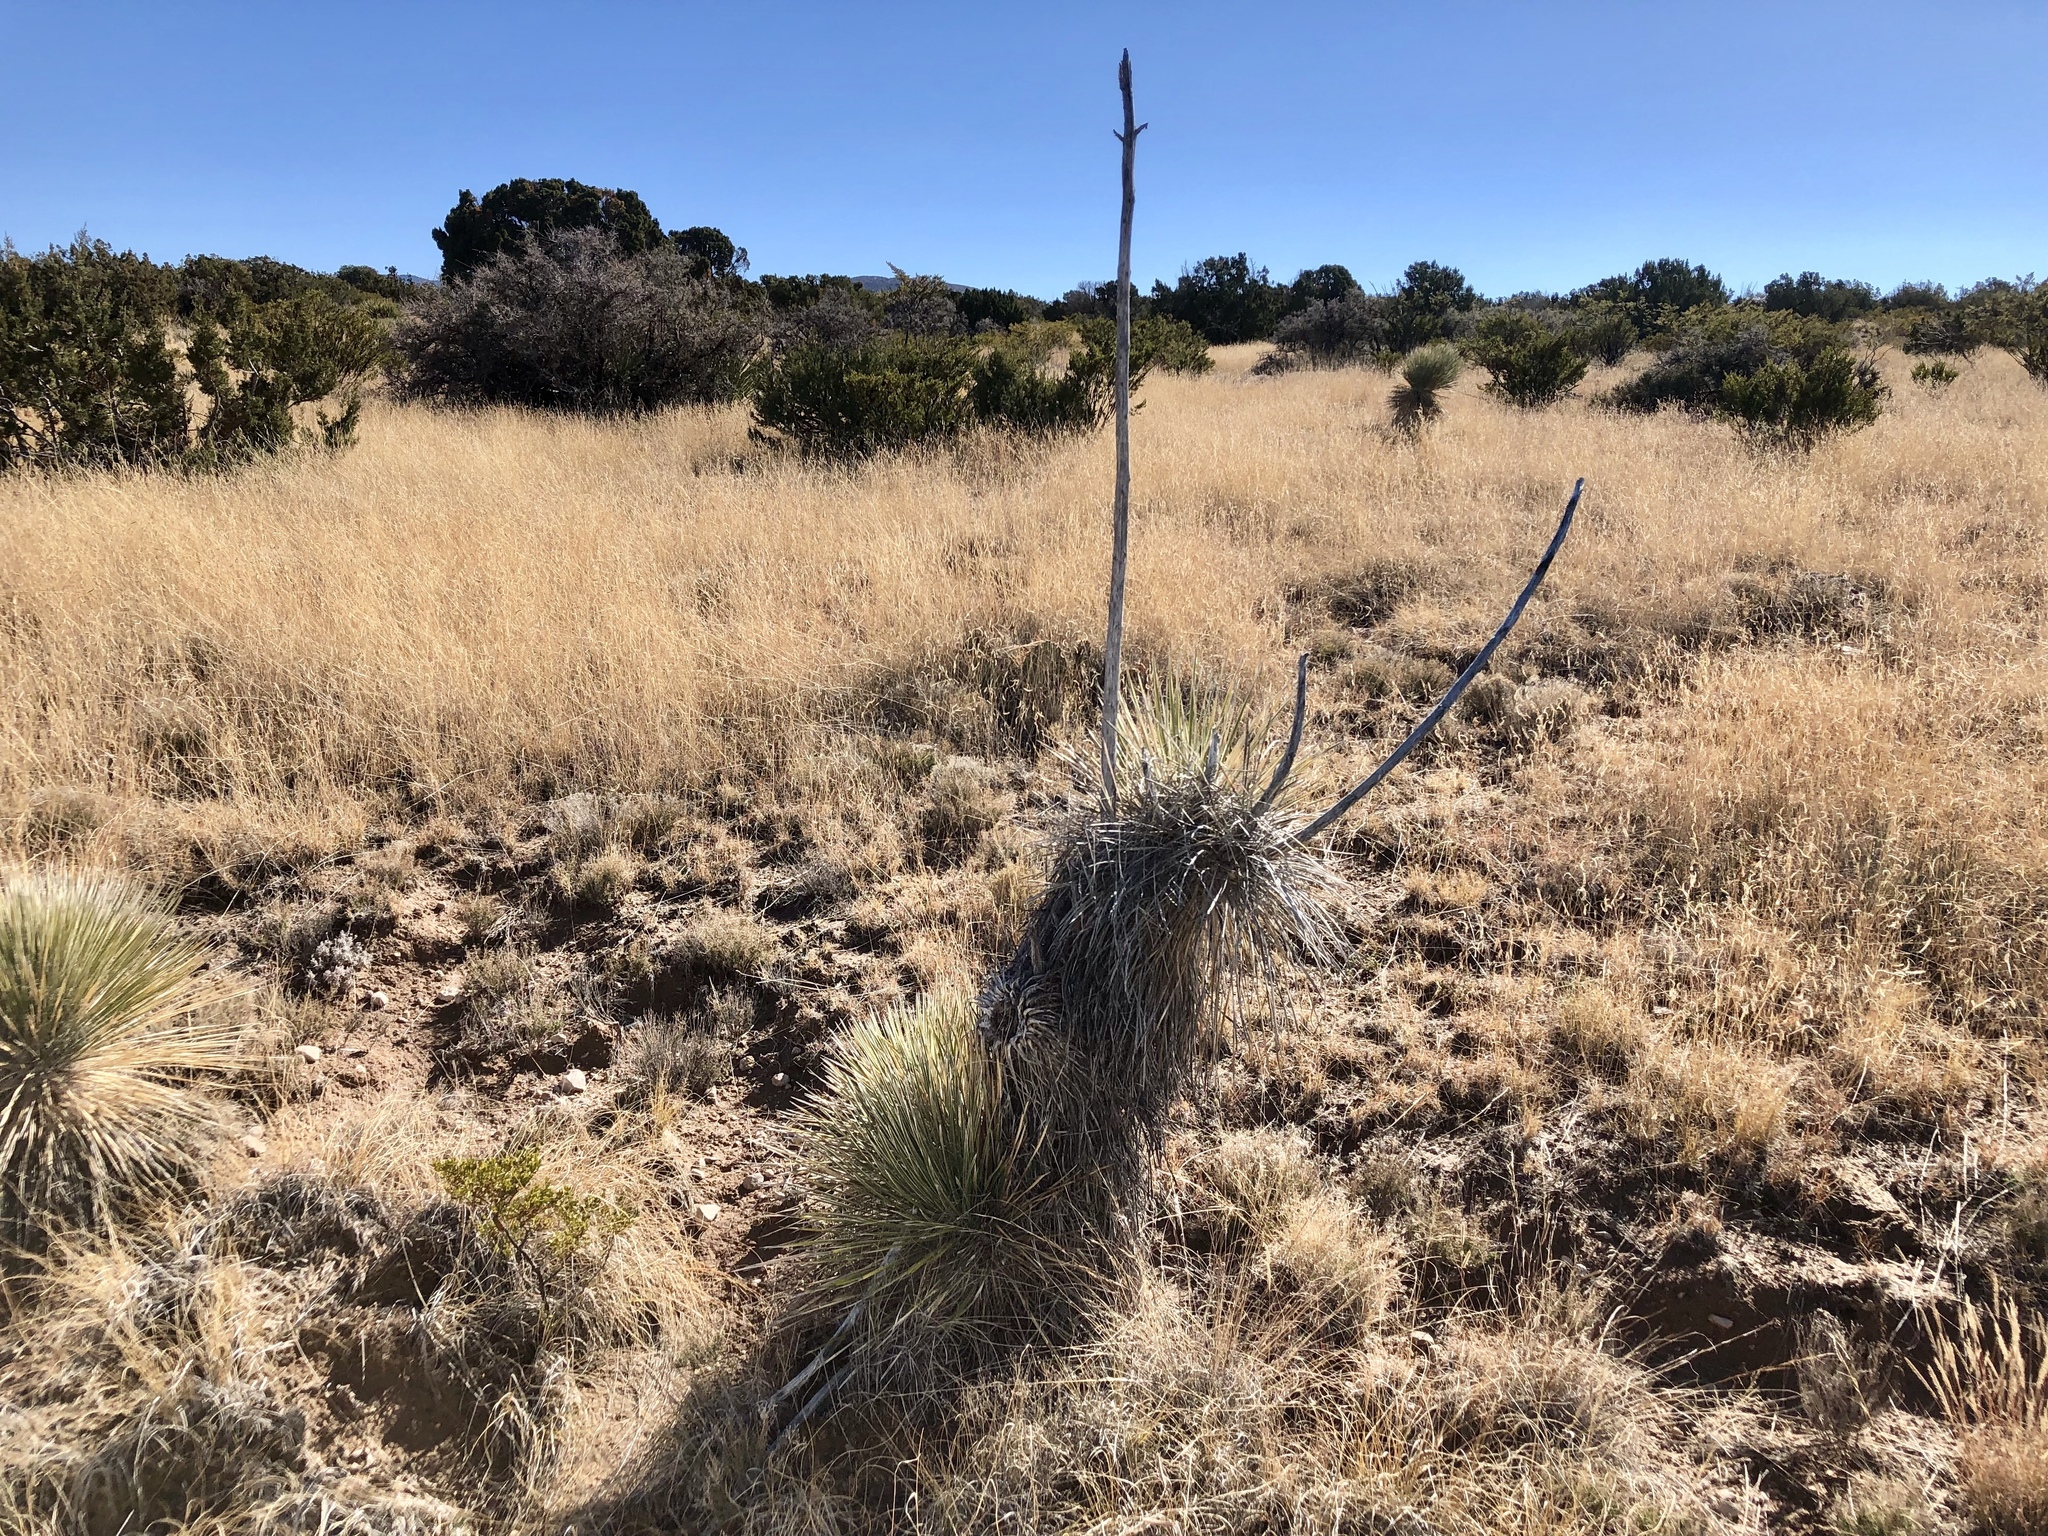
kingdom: Plantae
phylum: Tracheophyta
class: Liliopsida
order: Asparagales
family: Asparagaceae
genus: Yucca
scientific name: Yucca elata
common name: Palmella
